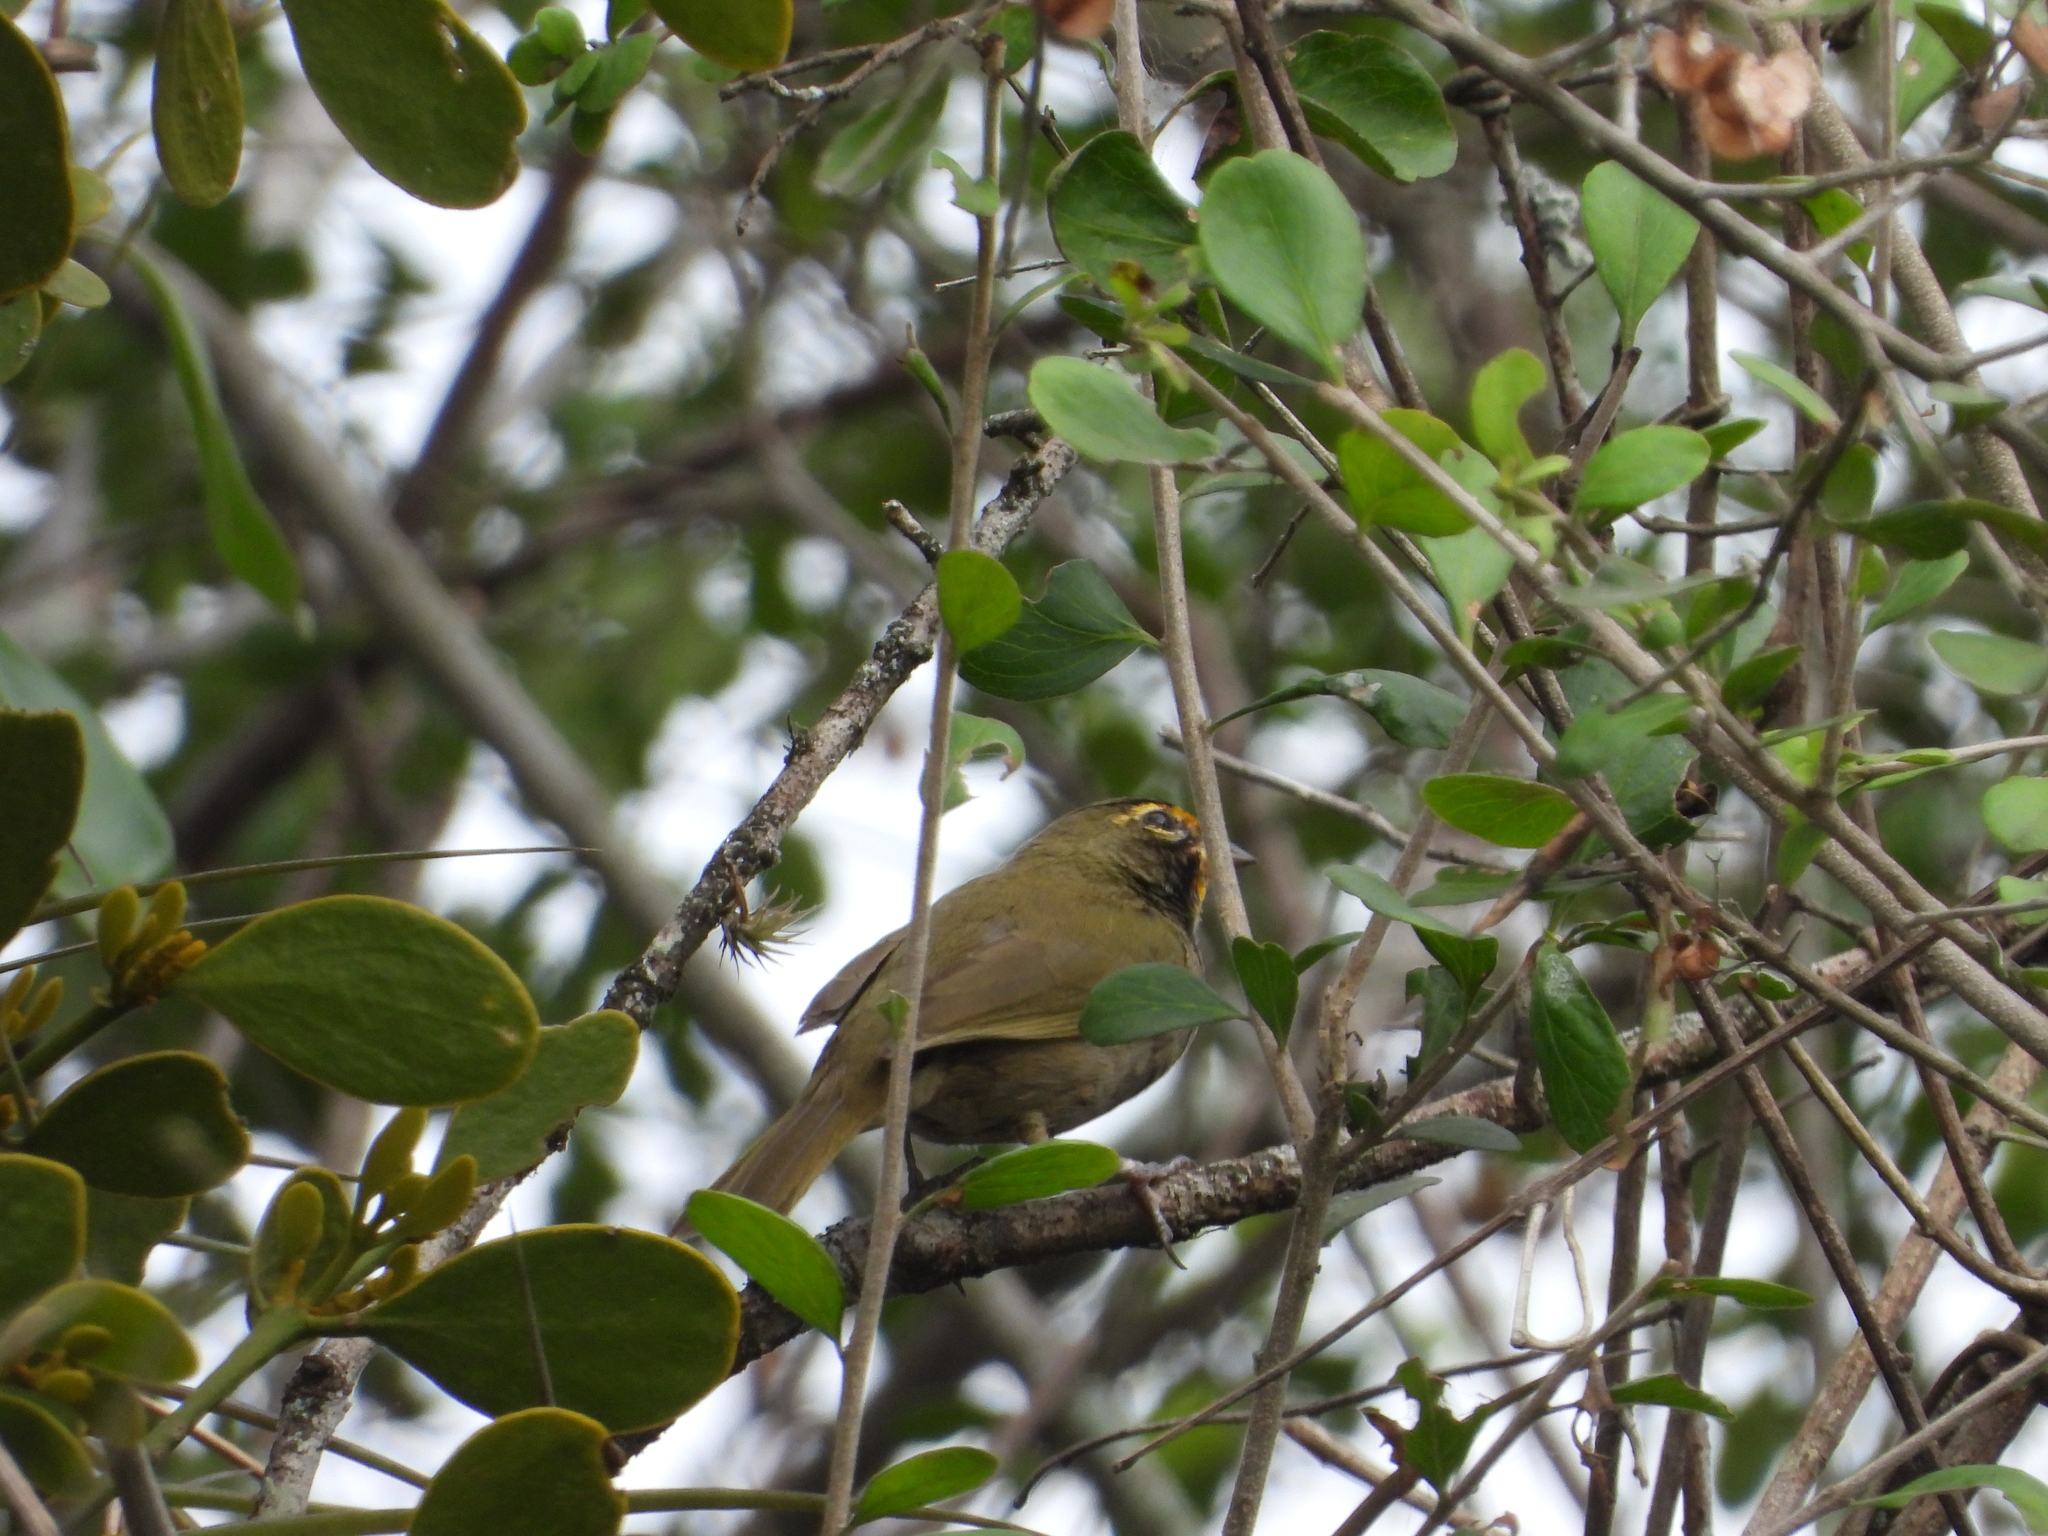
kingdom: Animalia
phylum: Chordata
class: Aves
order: Passeriformes
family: Thraupidae
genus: Tiaris
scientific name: Tiaris olivaceus
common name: Yellow-faced grassquit
